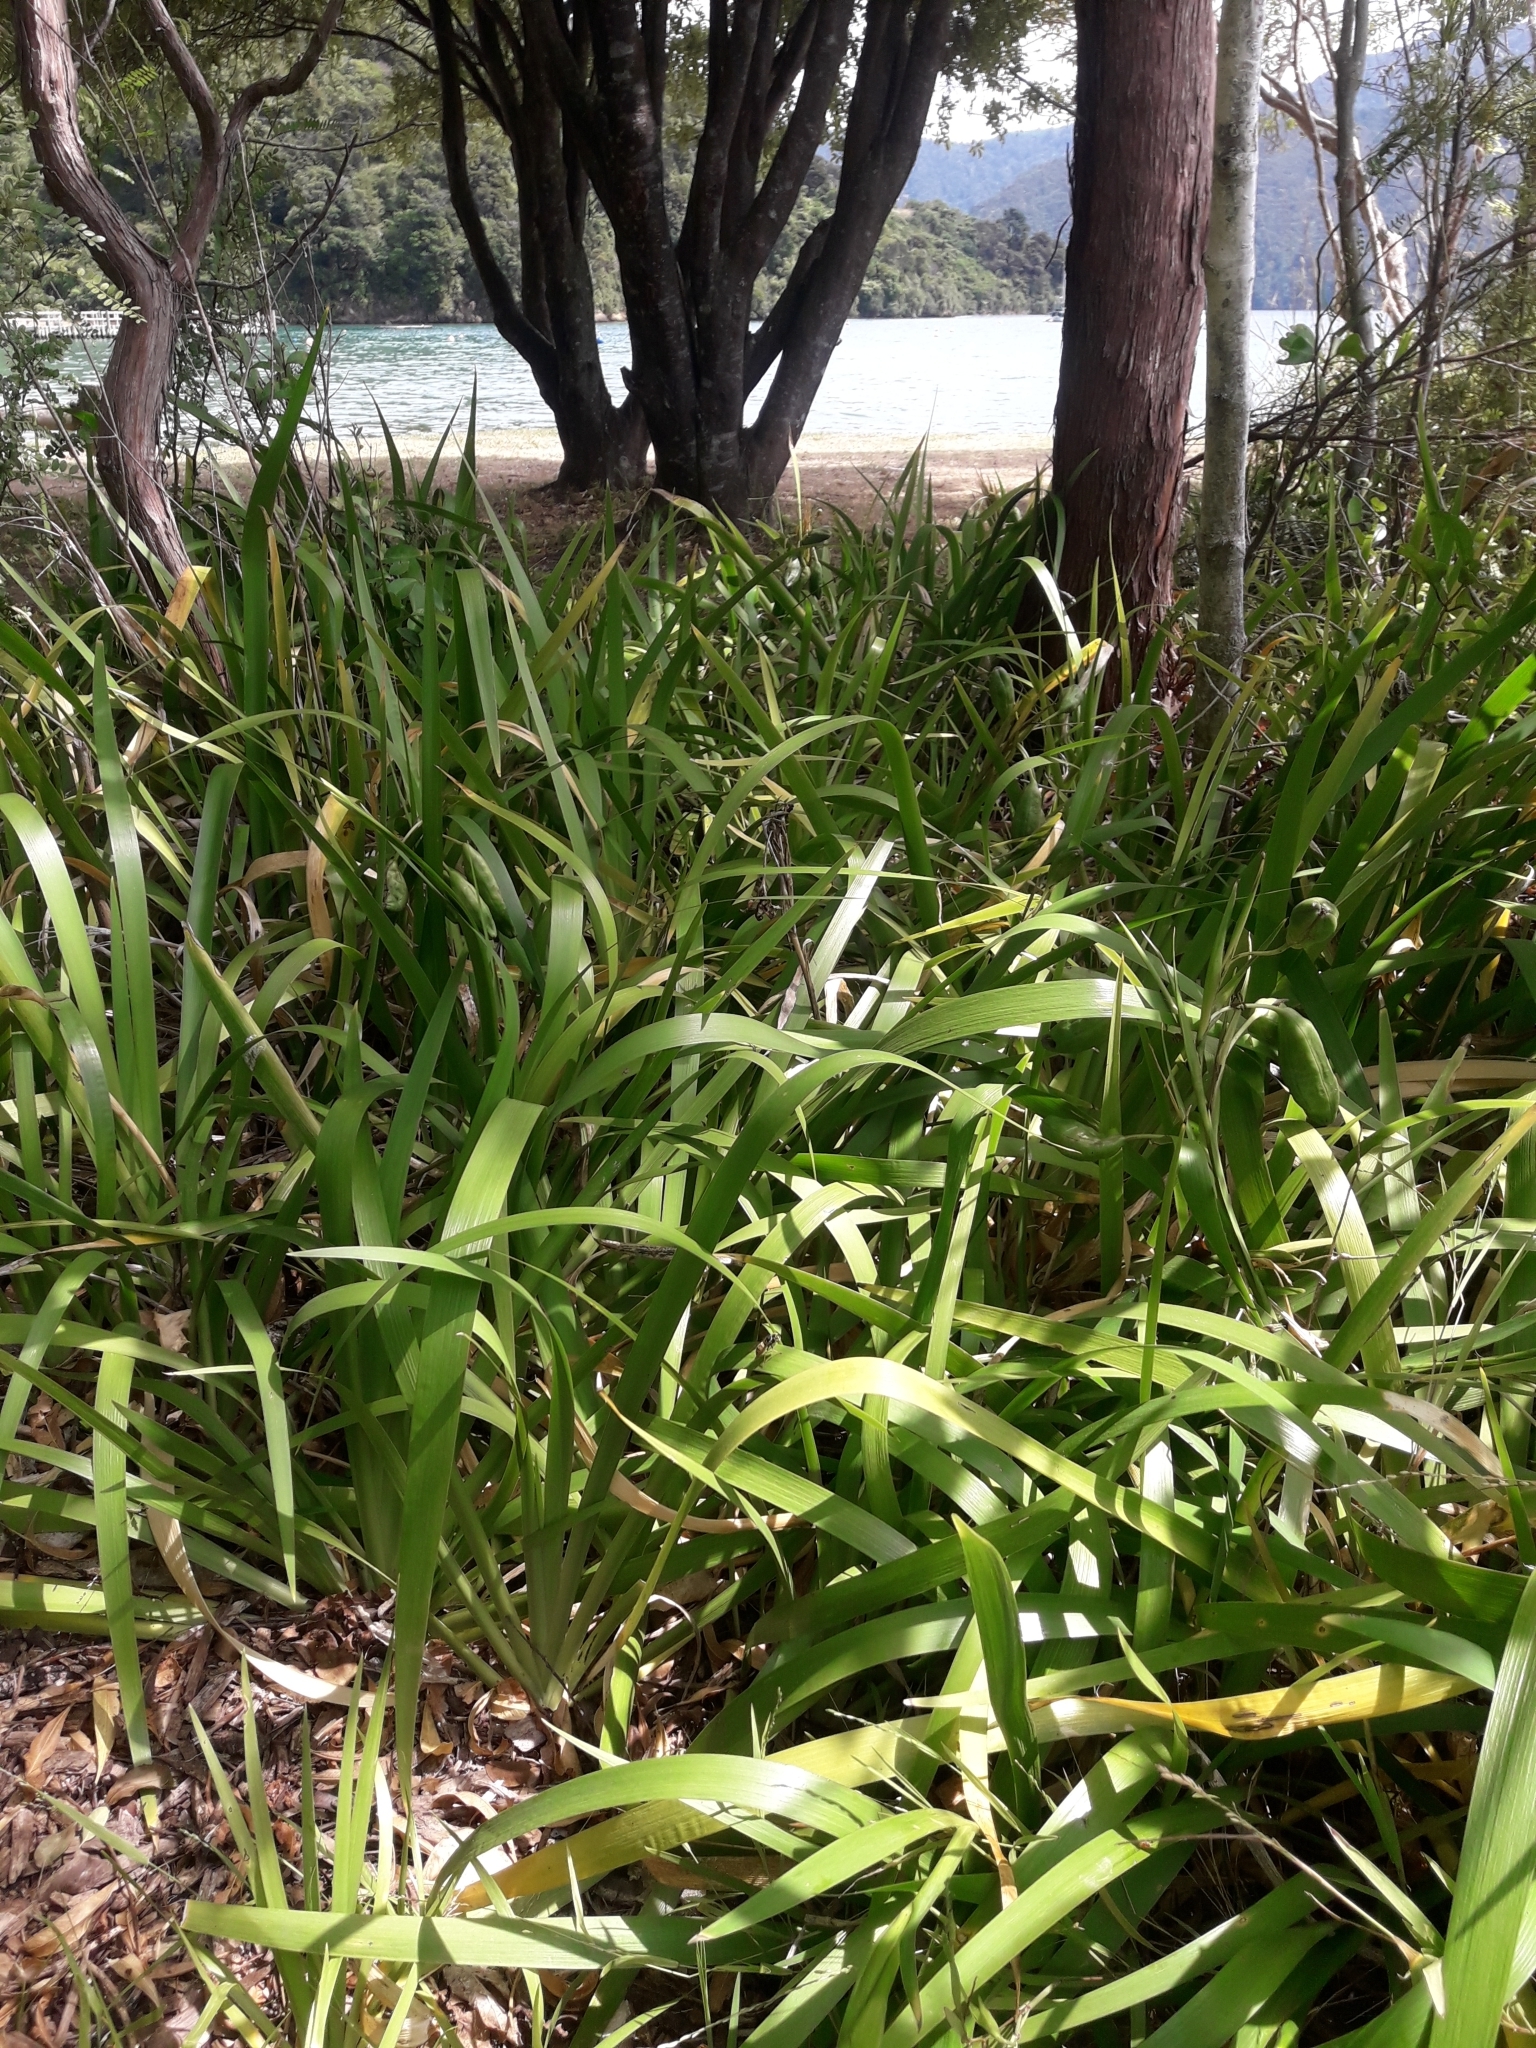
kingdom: Plantae
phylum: Tracheophyta
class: Liliopsida
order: Asparagales
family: Iridaceae
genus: Iris
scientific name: Iris foetidissima
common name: Stinking iris
